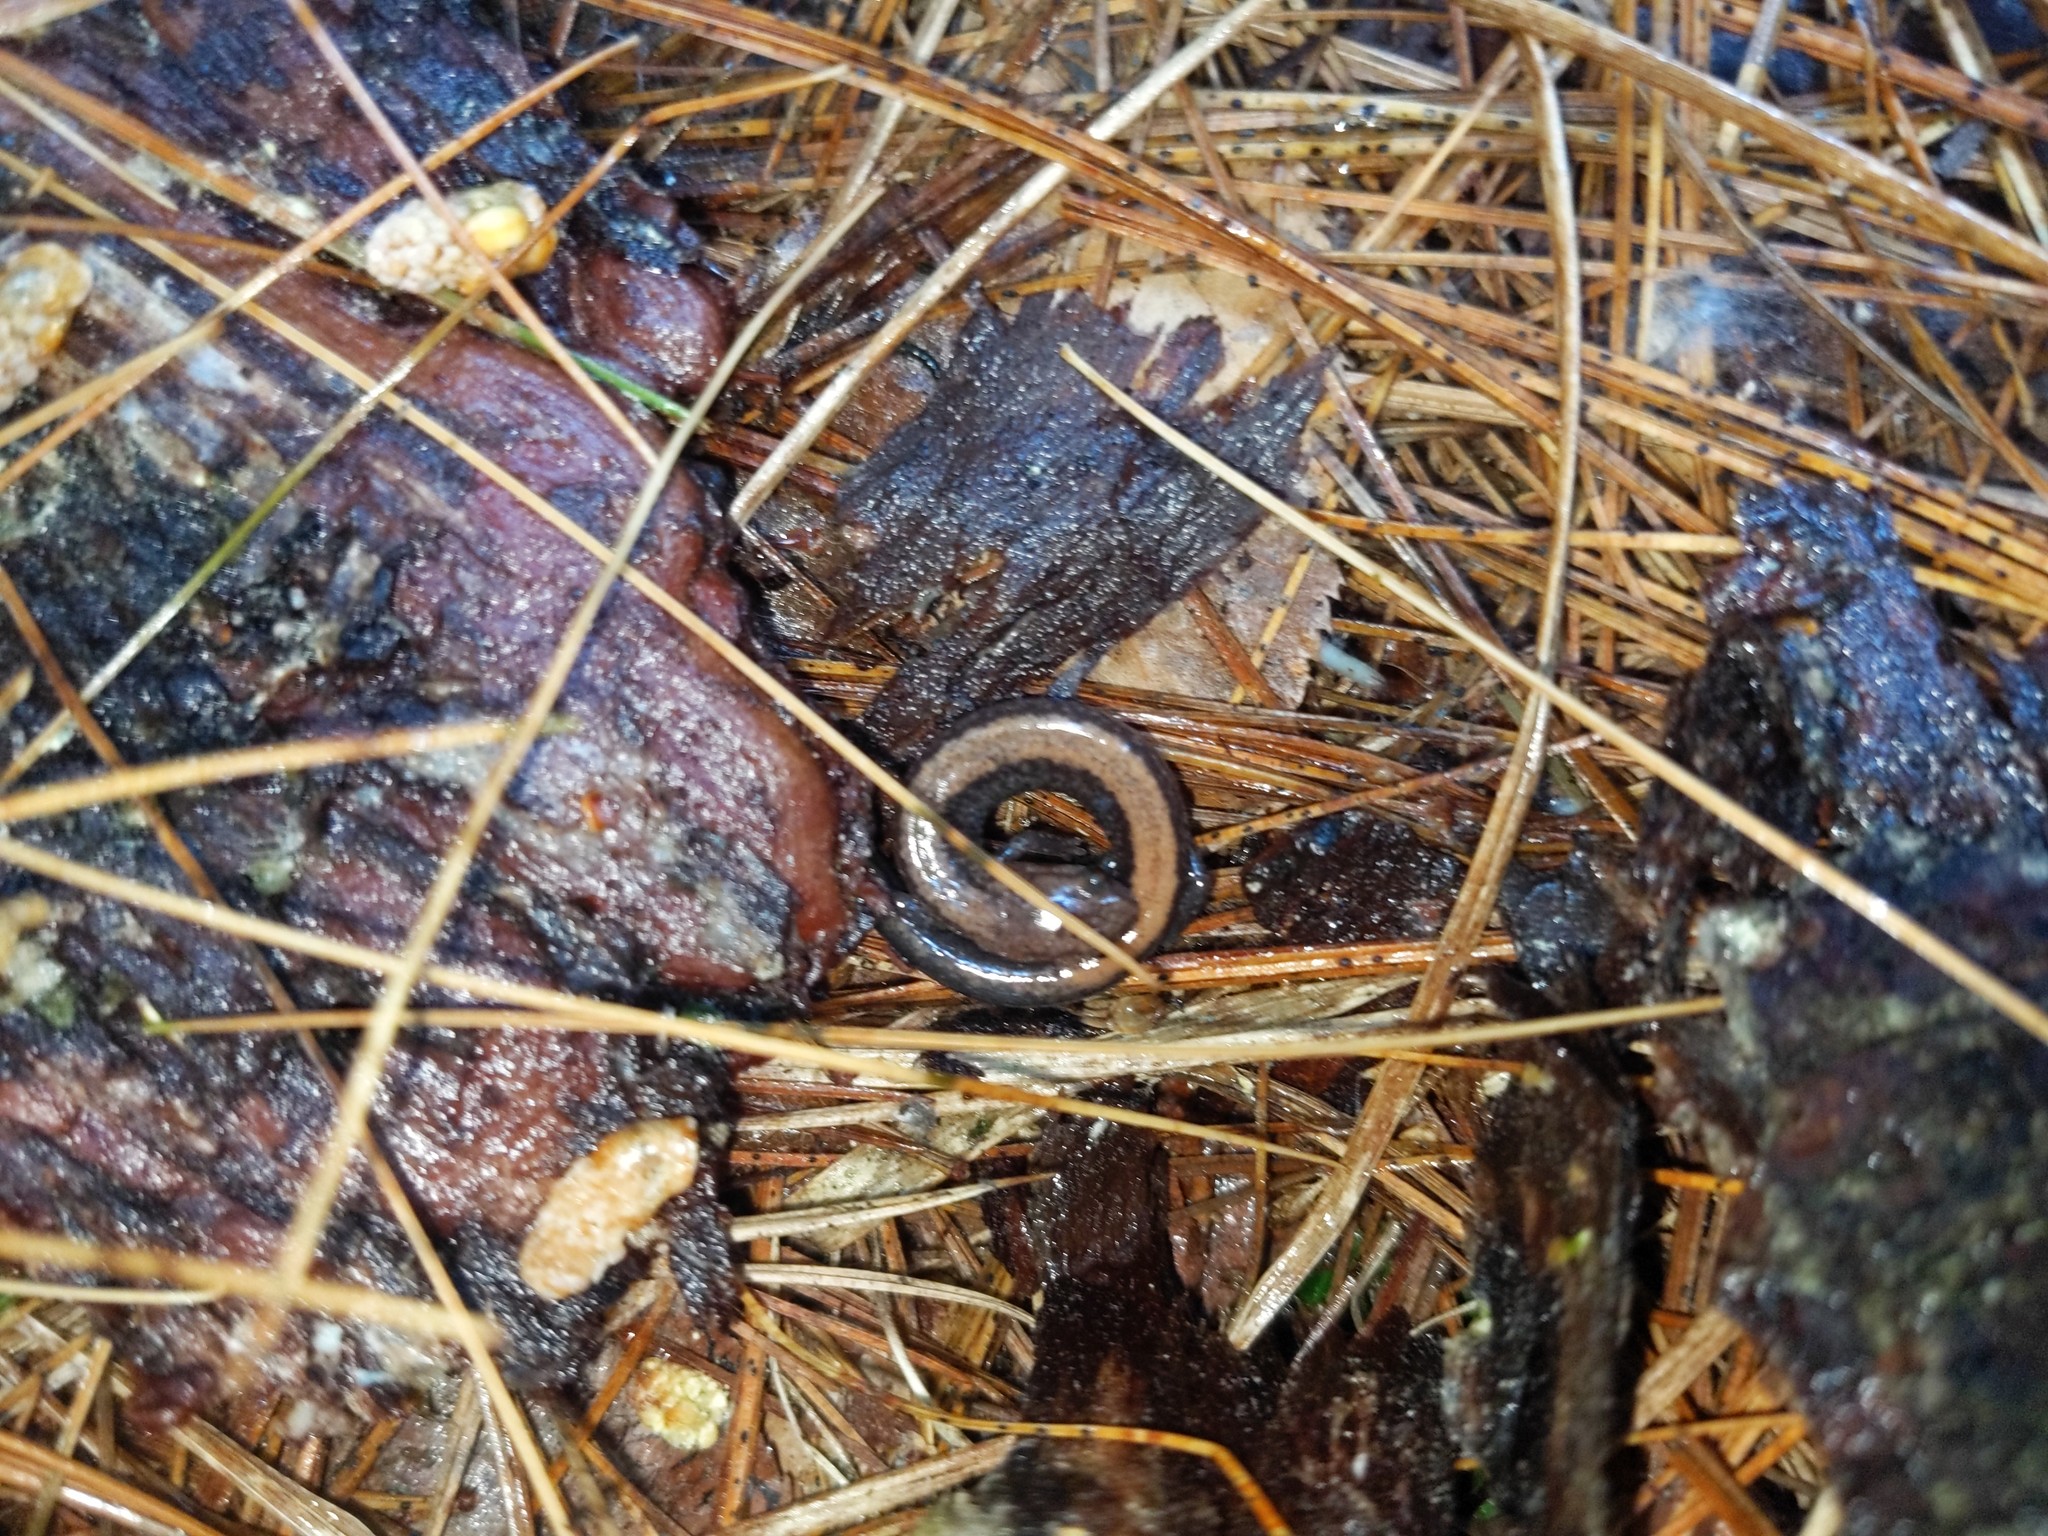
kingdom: Animalia
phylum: Chordata
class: Amphibia
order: Caudata
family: Plethodontidae
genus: Plethodon
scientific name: Plethodon cinereus
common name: Redback salamander
